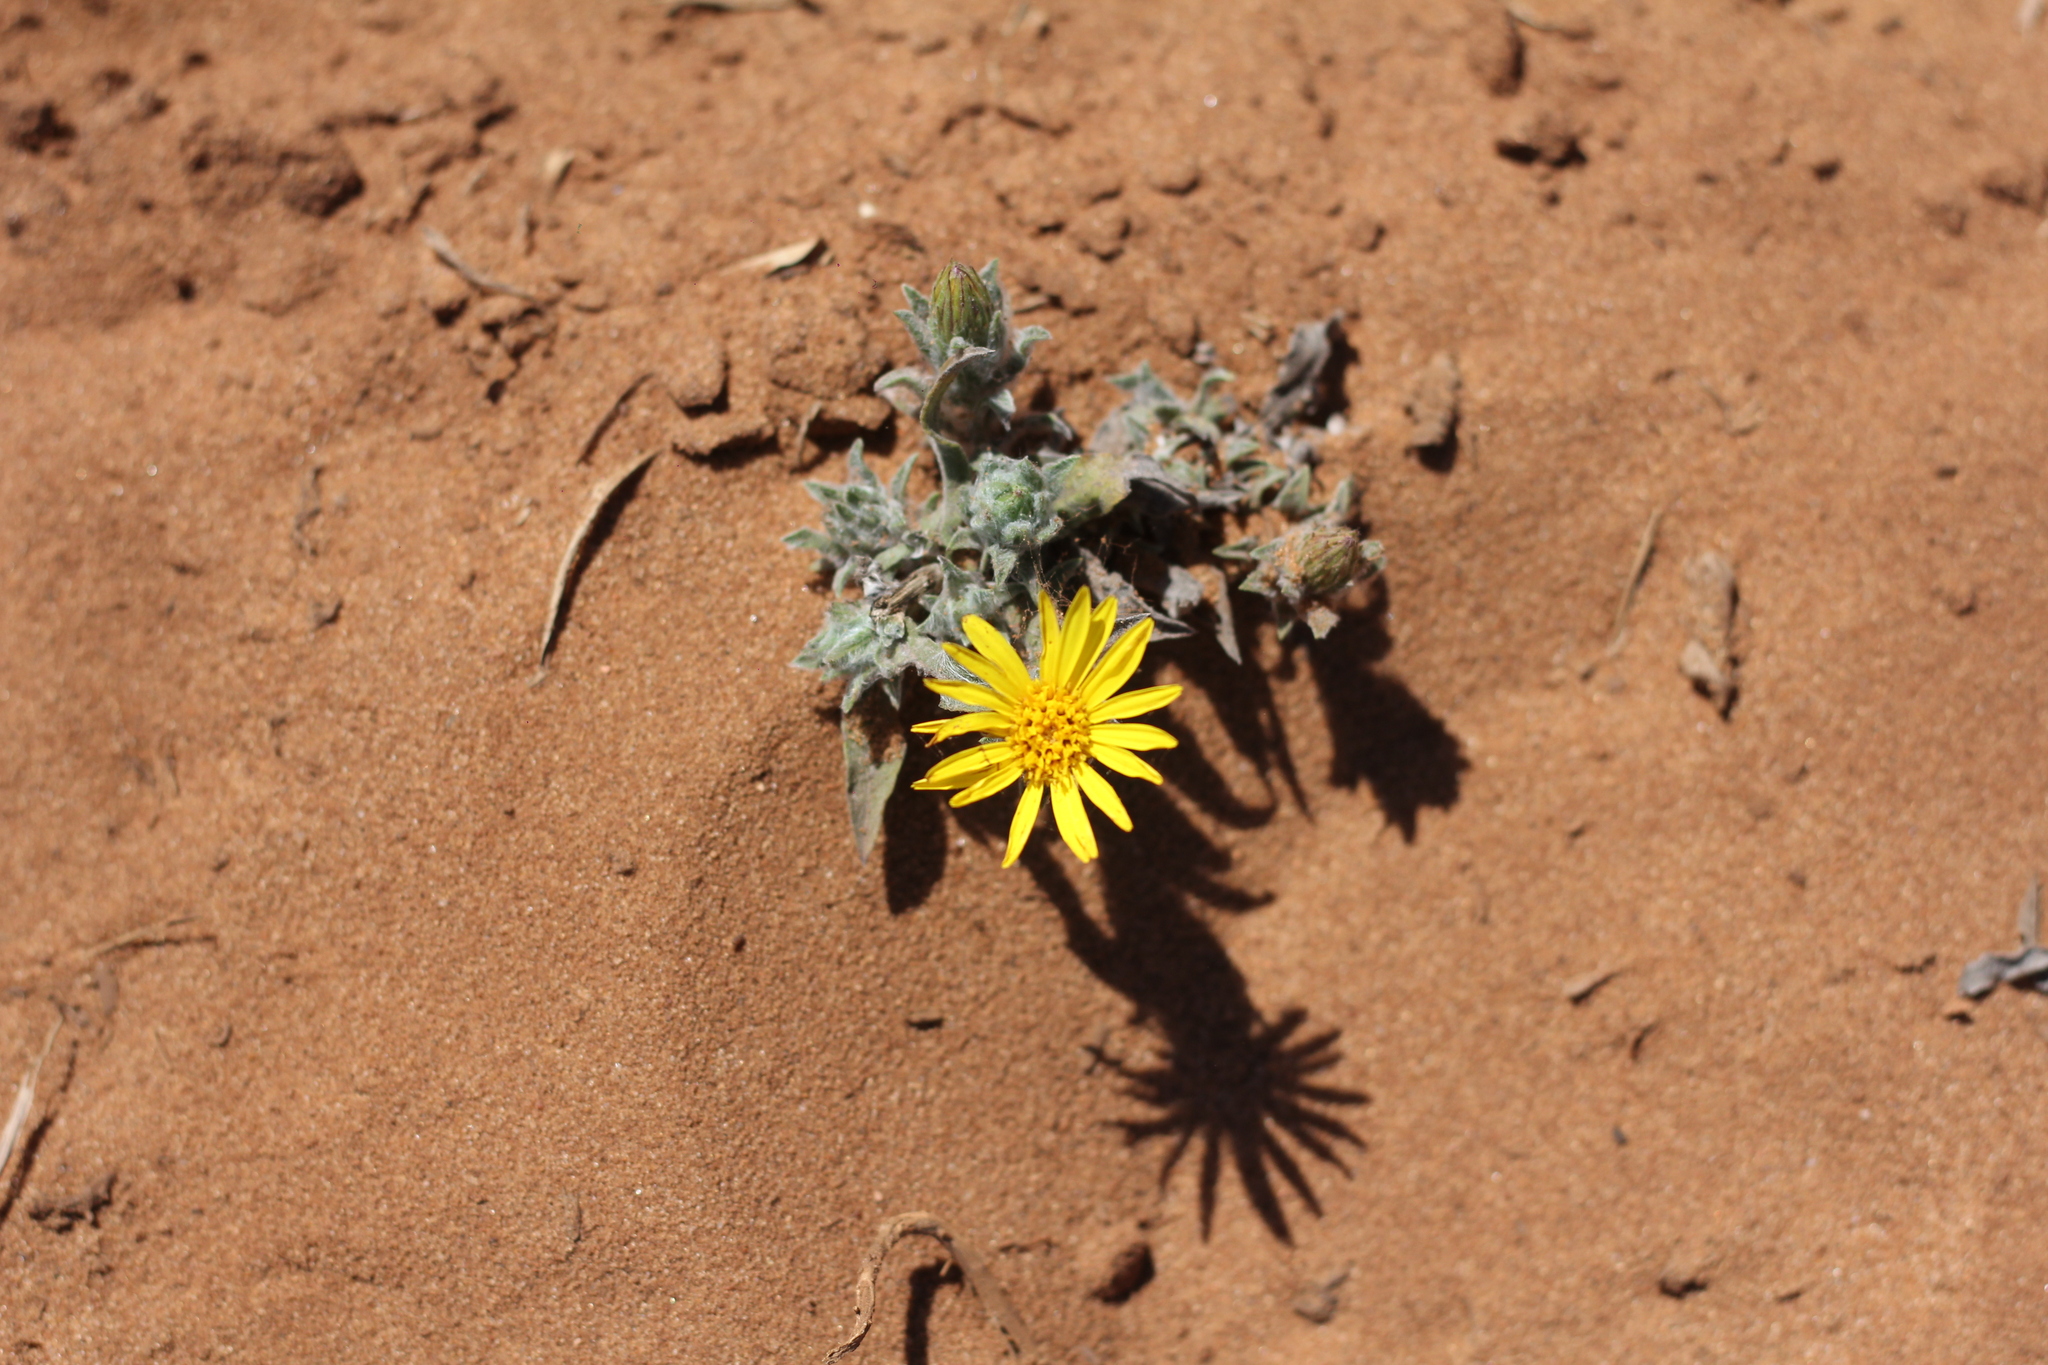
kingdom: Plantae
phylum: Tracheophyta
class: Magnoliopsida
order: Asterales
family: Asteraceae
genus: Noticastrum
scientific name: Noticastrum acuminatum
